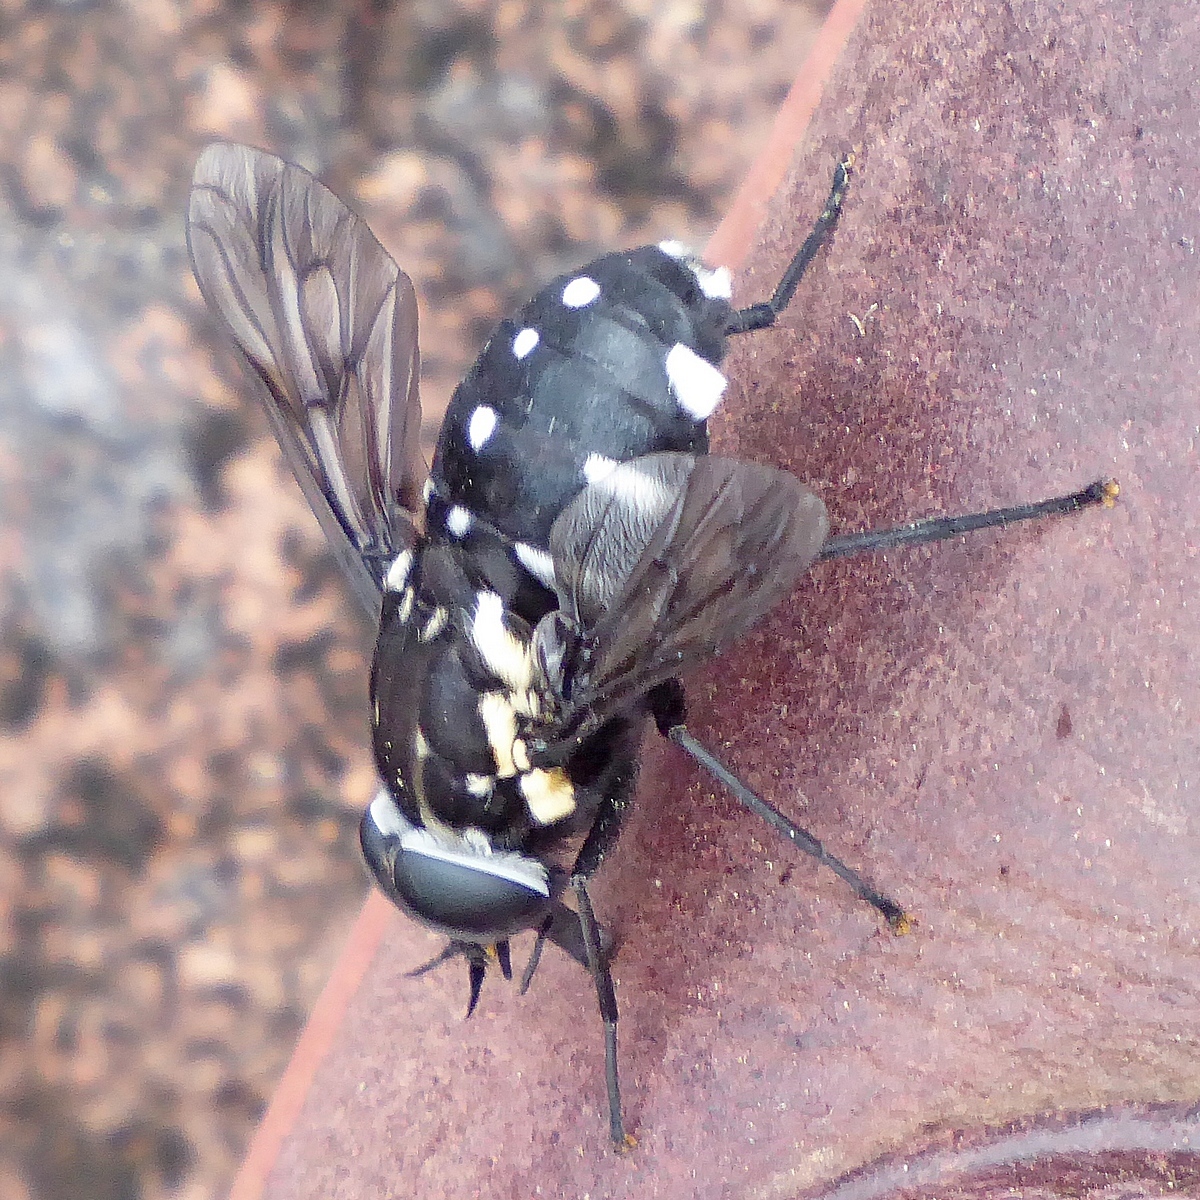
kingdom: Animalia
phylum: Arthropoda
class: Insecta
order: Diptera
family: Tabanidae
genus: Triclista
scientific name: Triclista guttata
